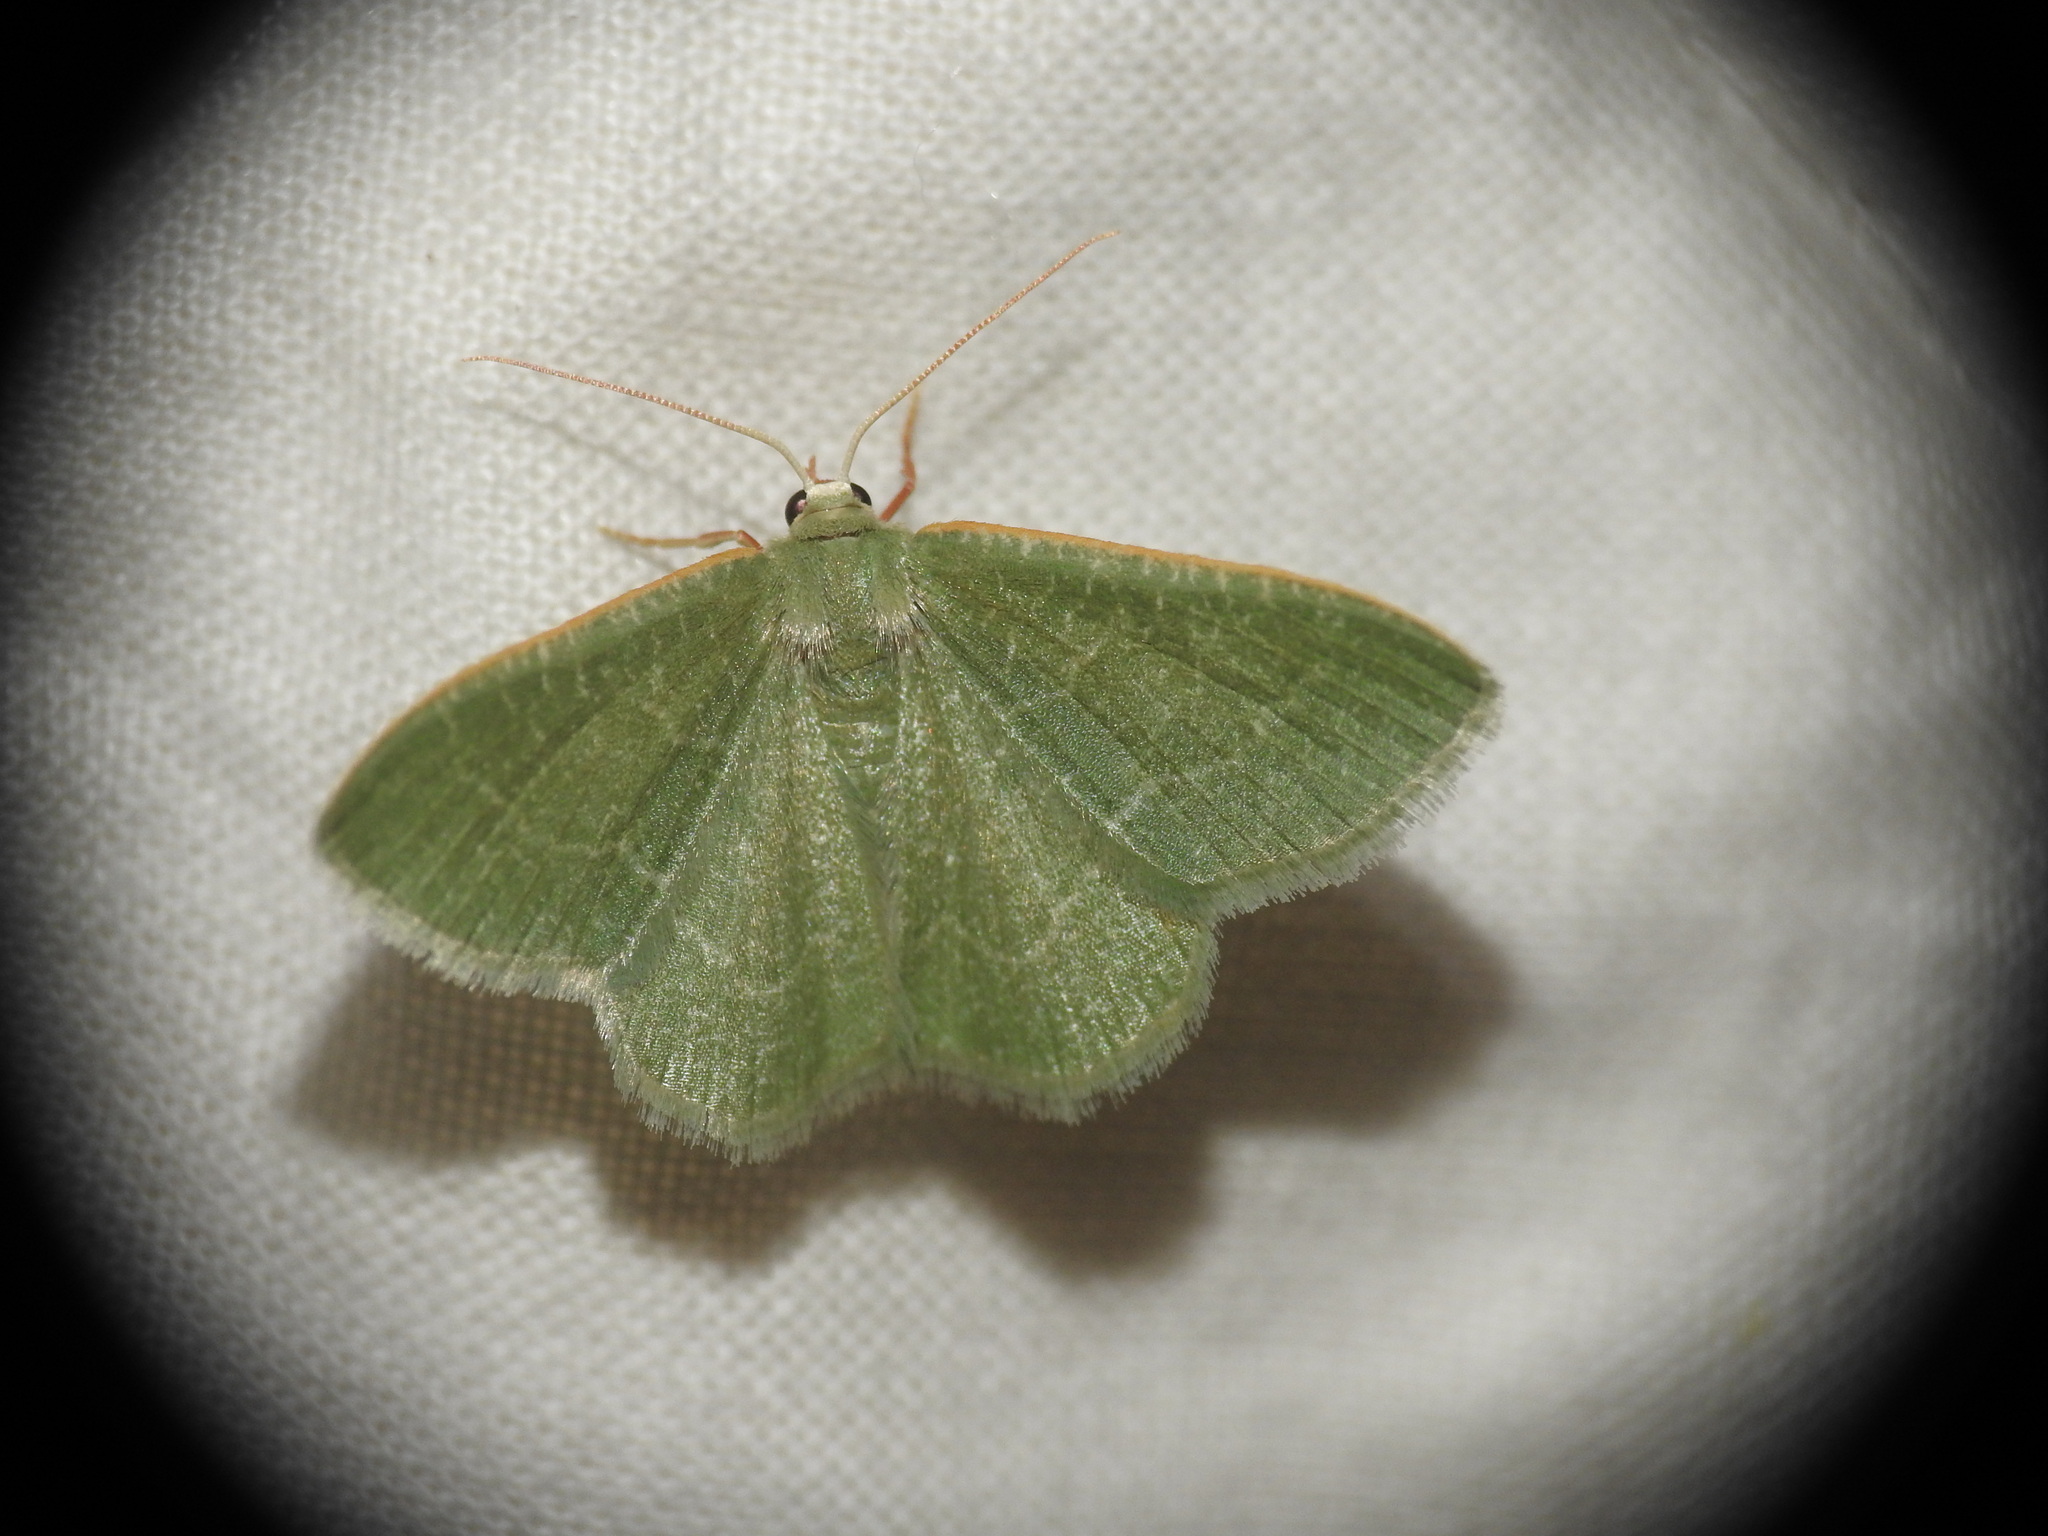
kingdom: Animalia
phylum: Arthropoda
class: Insecta
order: Lepidoptera
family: Geometridae
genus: Chlorissa
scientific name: Chlorissa etruscaria
